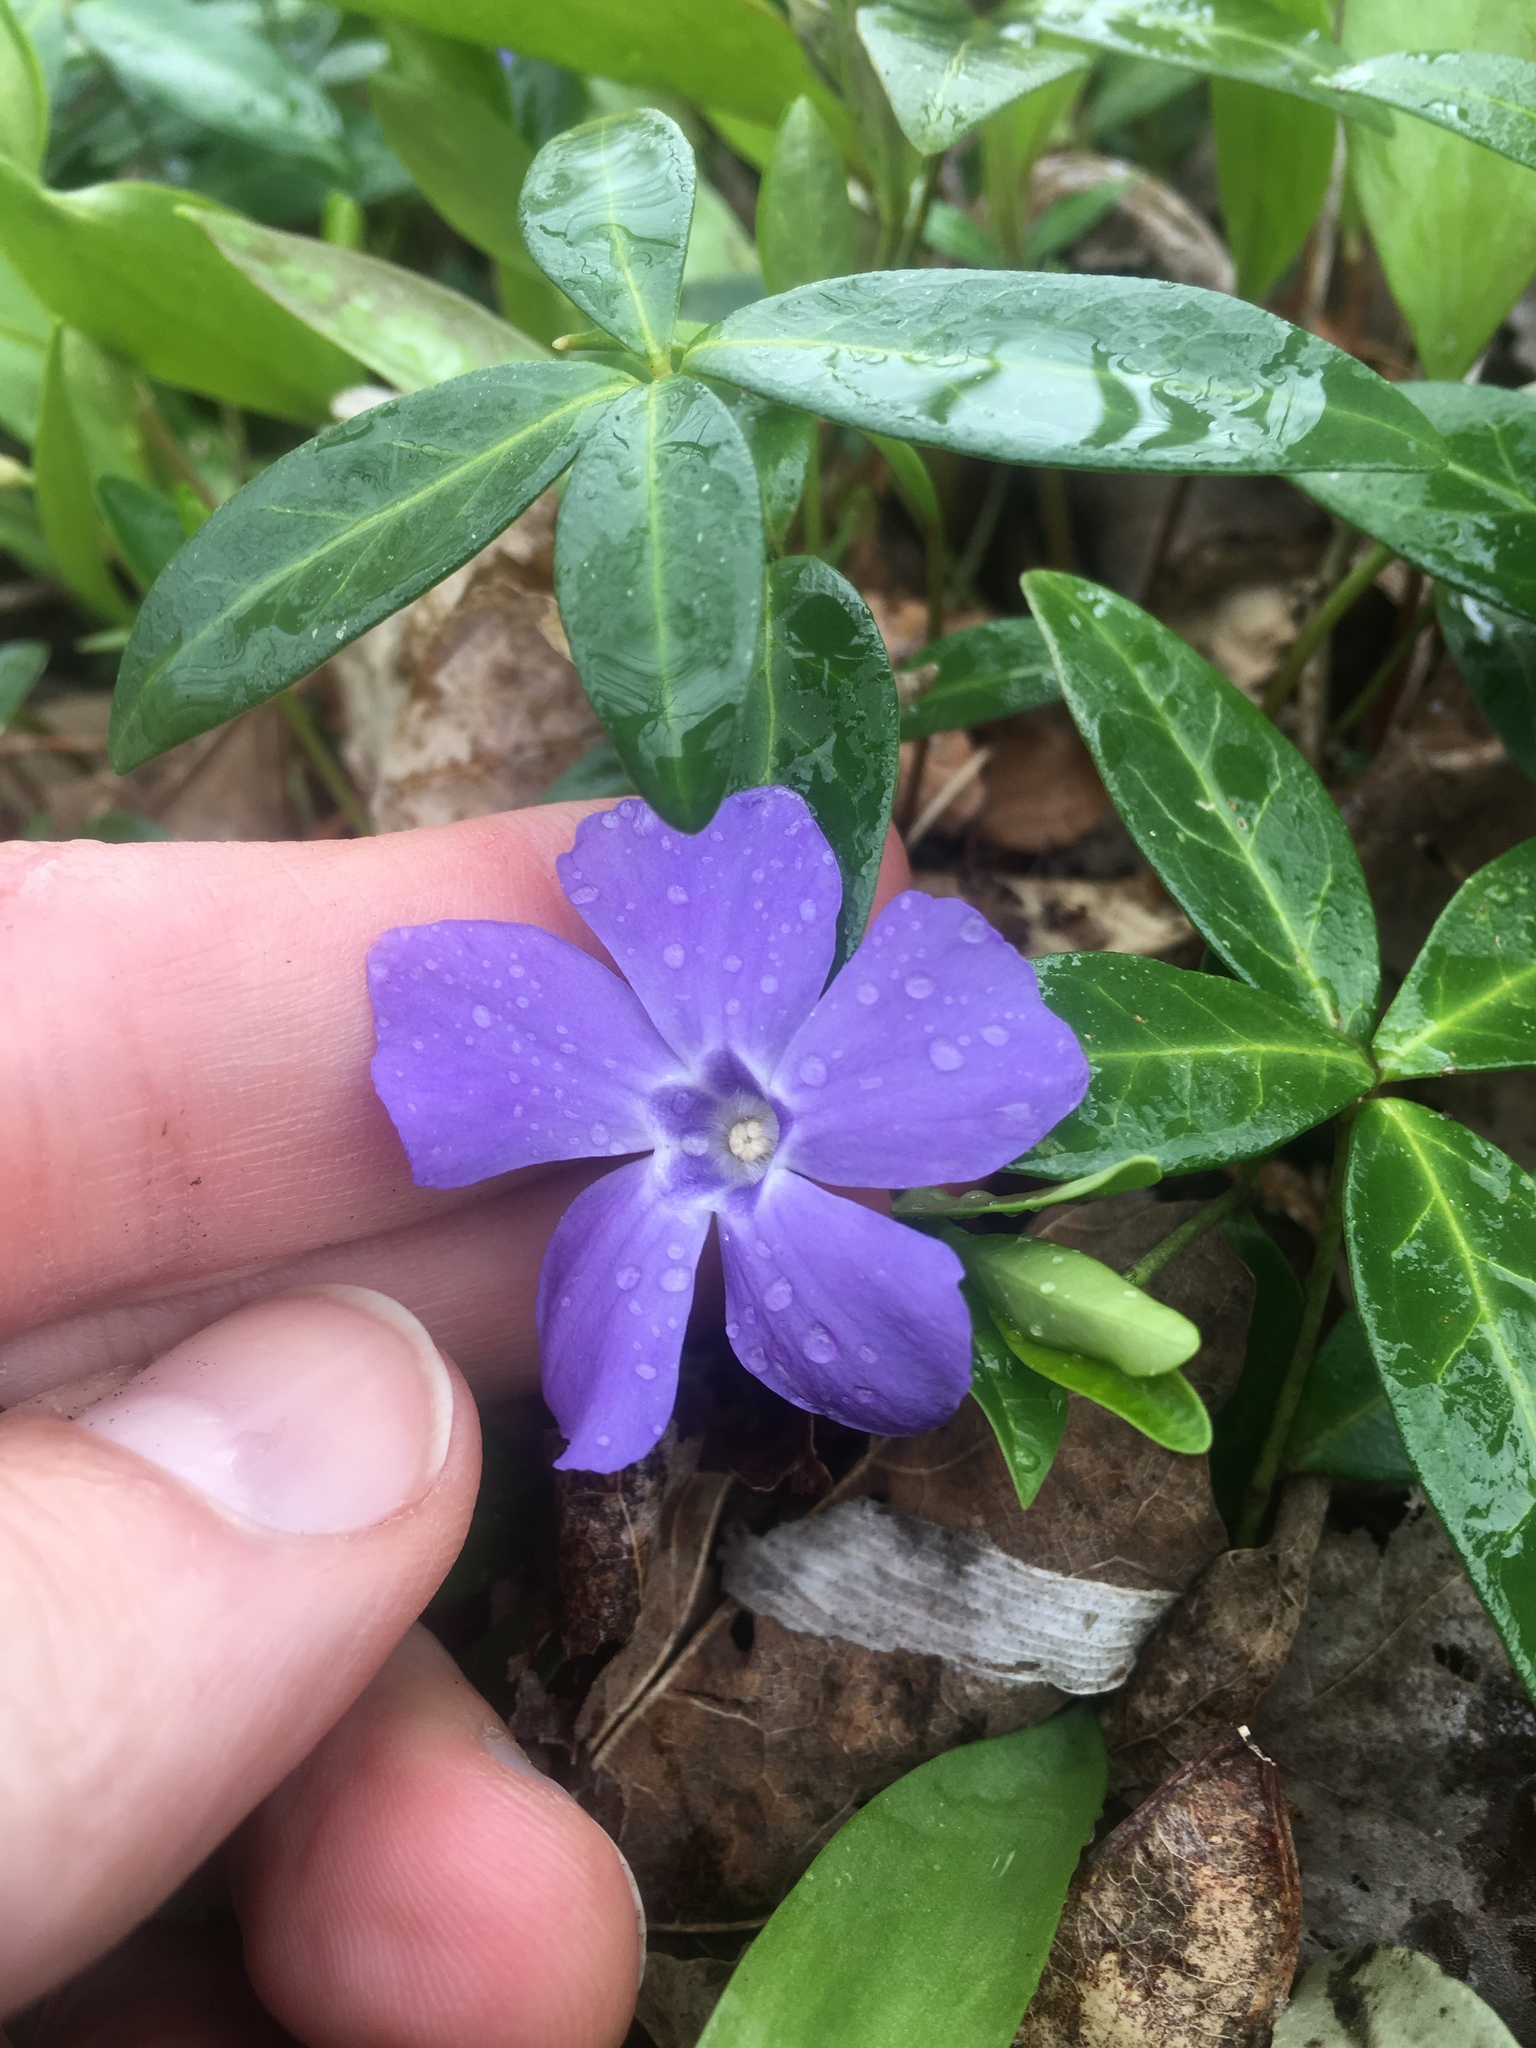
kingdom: Plantae
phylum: Tracheophyta
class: Magnoliopsida
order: Gentianales
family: Apocynaceae
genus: Vinca
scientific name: Vinca minor
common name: Lesser periwinkle
